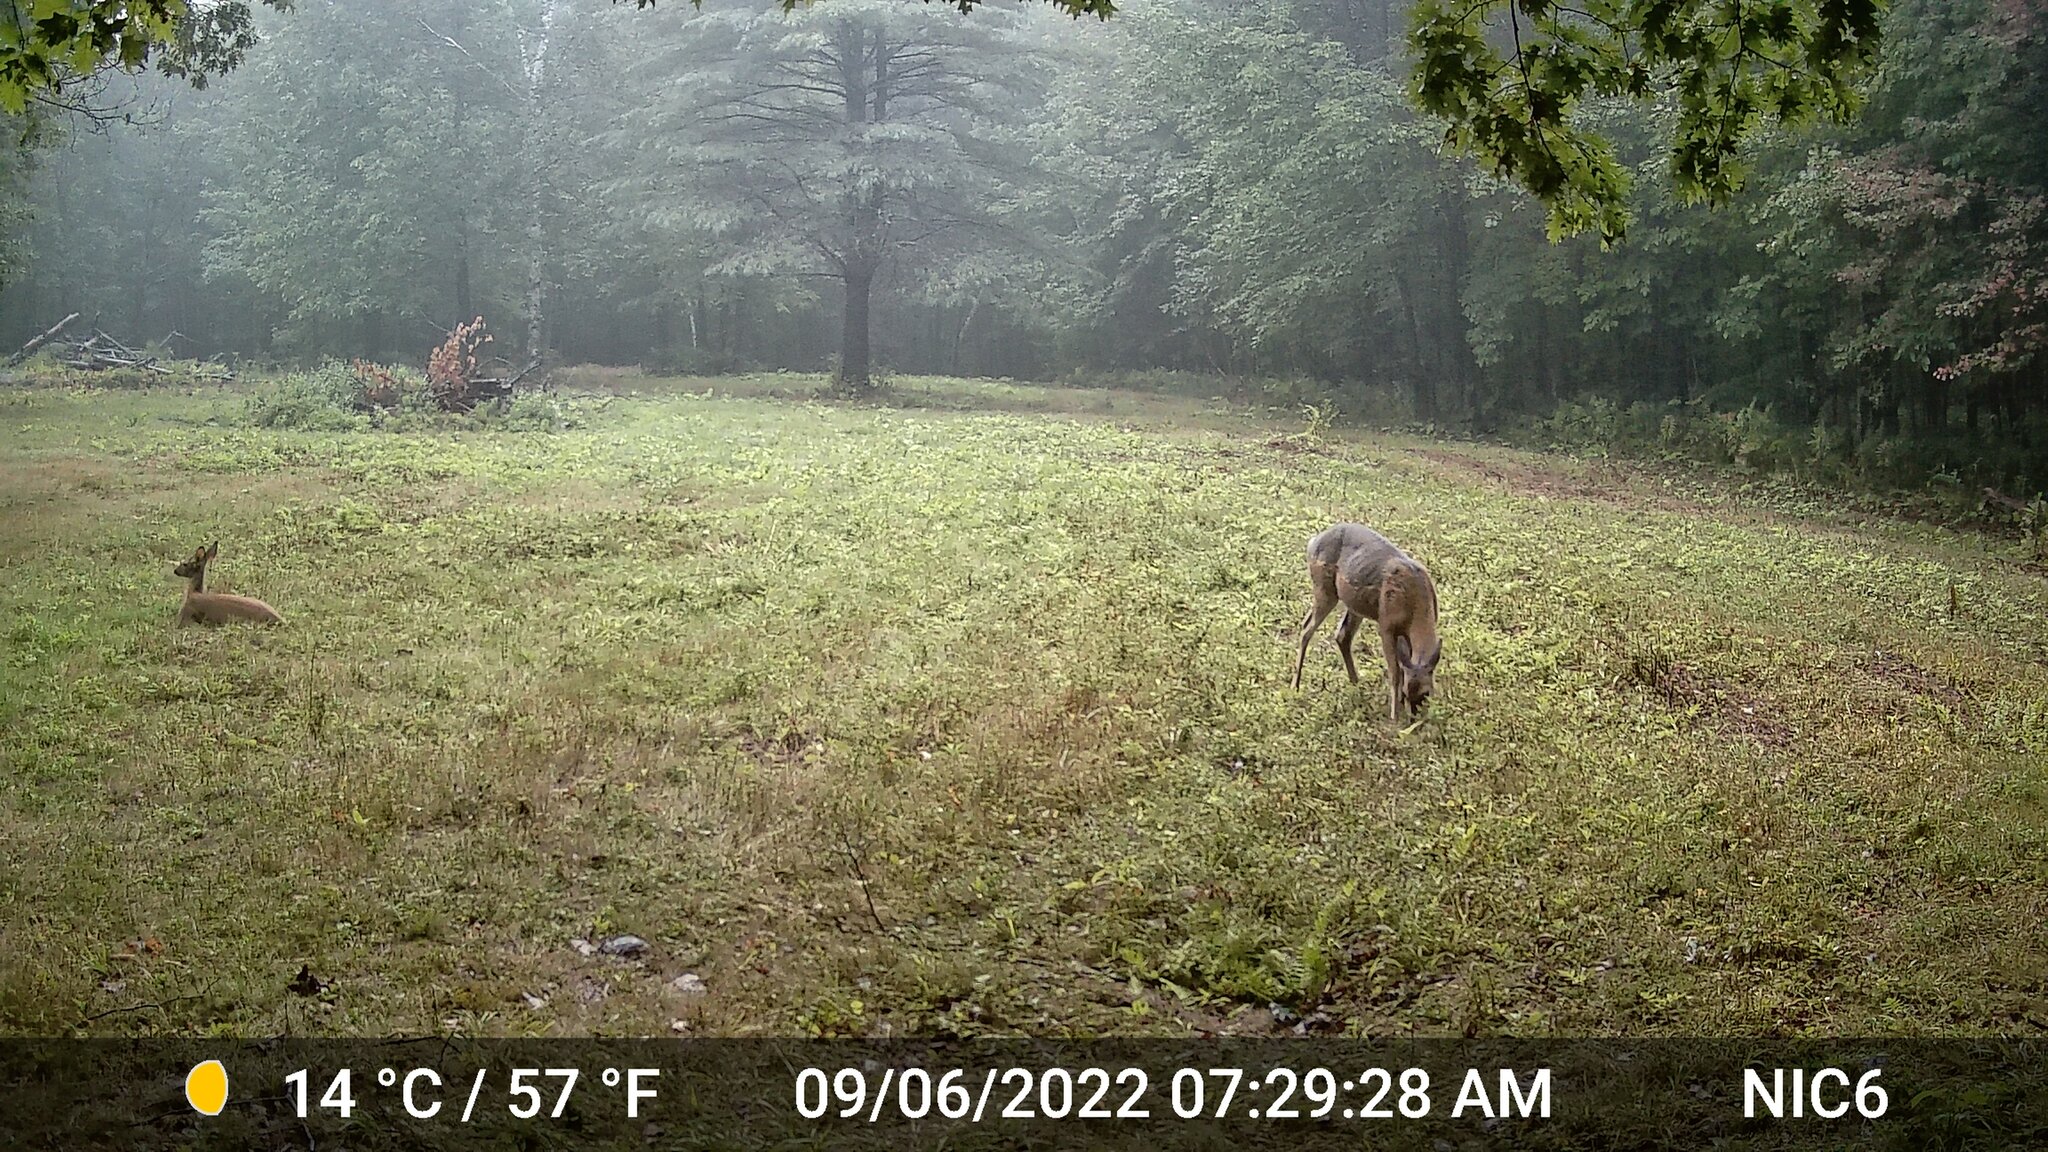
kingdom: Animalia
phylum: Chordata
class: Mammalia
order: Artiodactyla
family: Cervidae
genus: Odocoileus
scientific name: Odocoileus virginianus
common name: White-tailed deer
